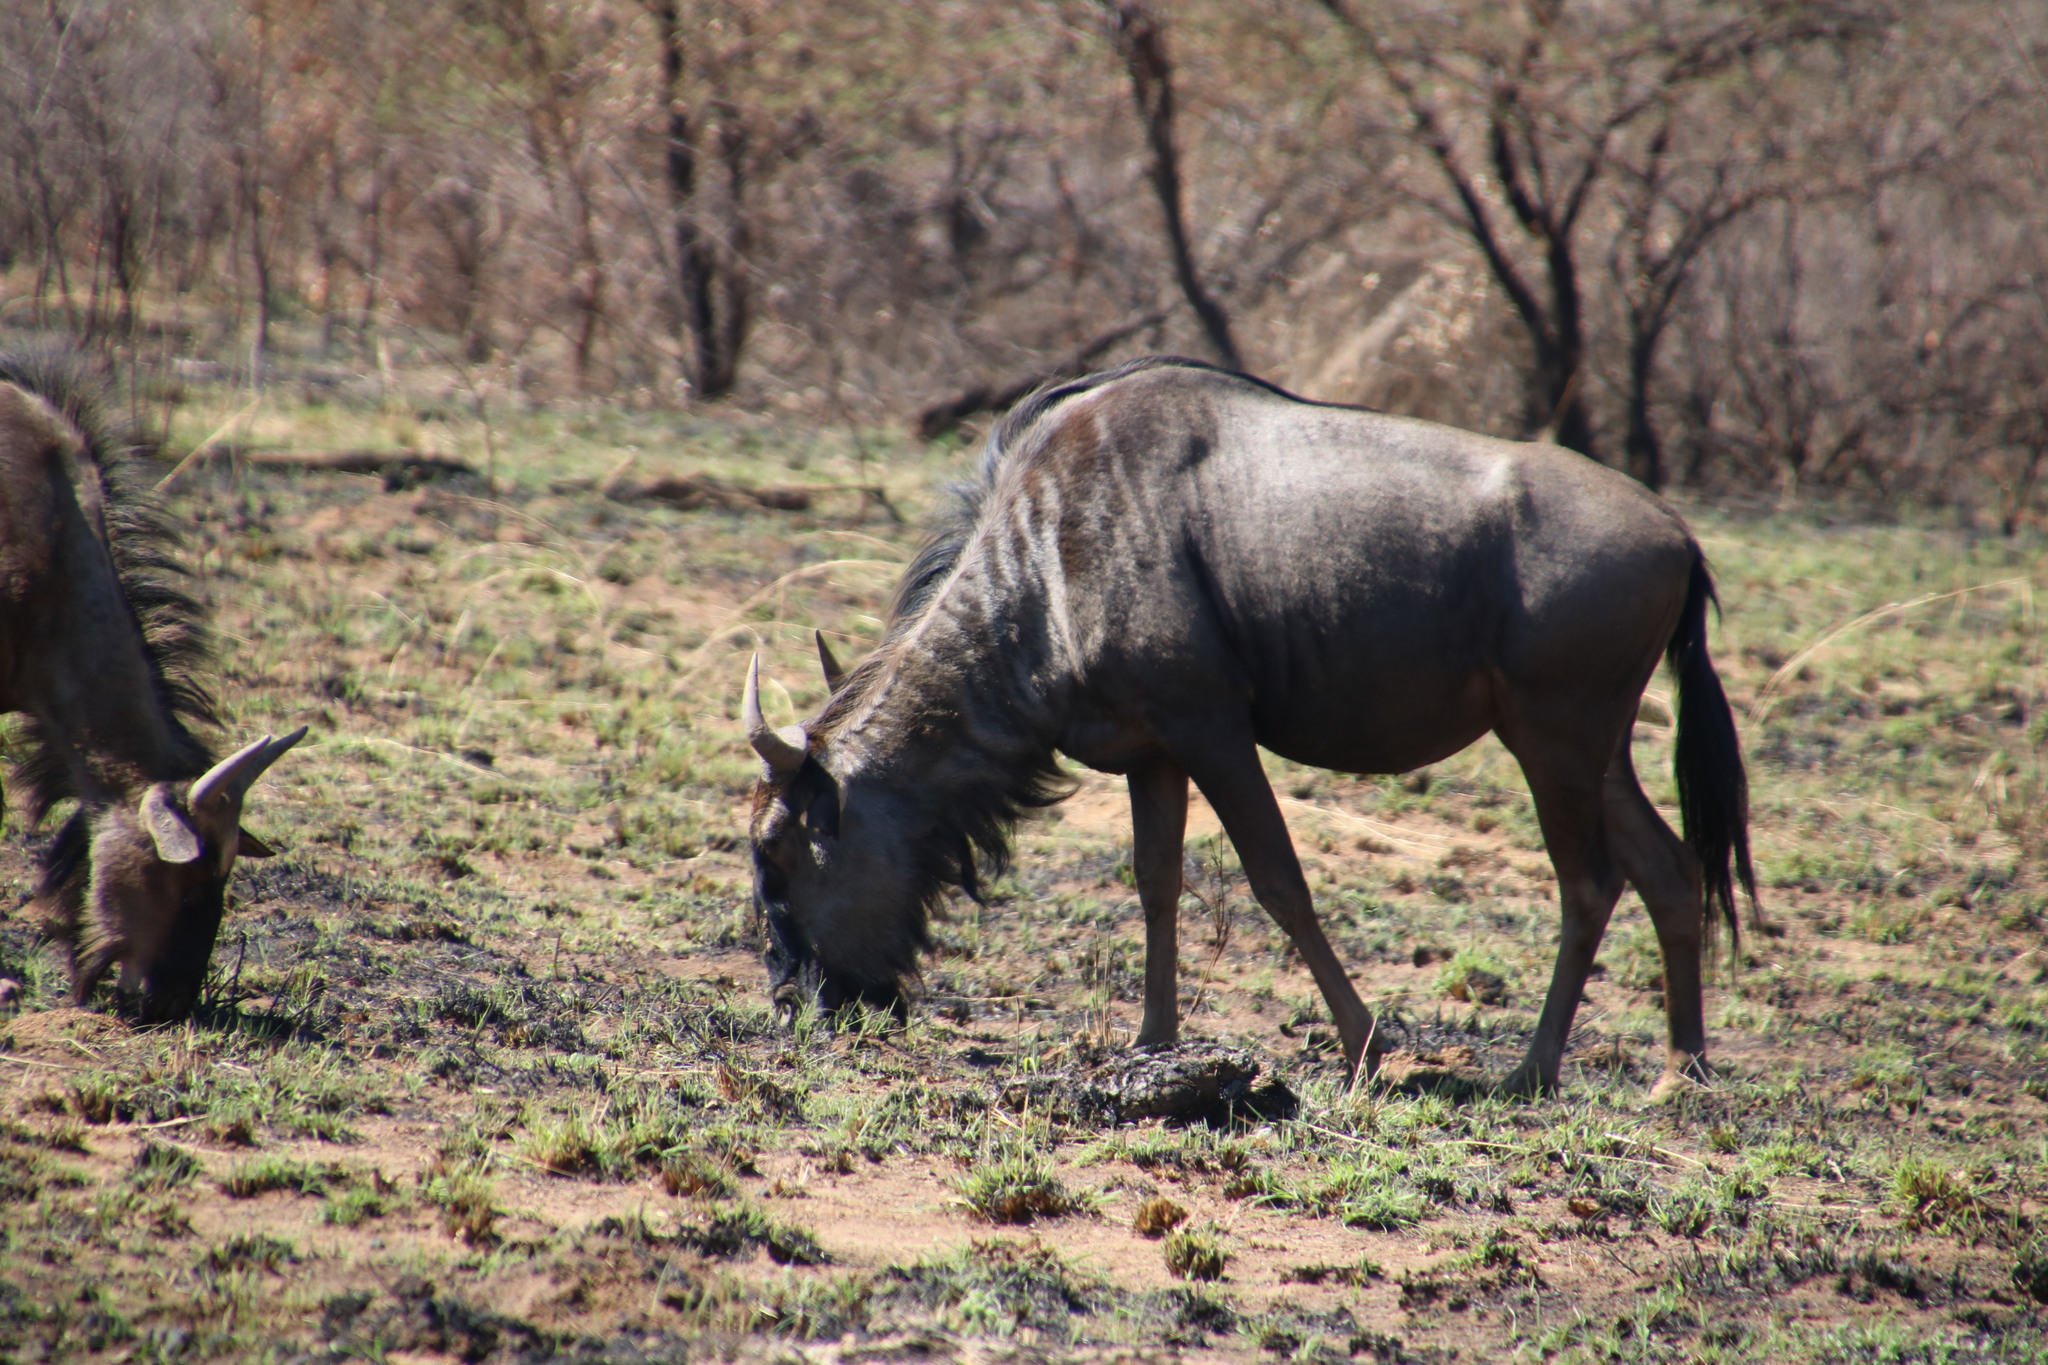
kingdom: Animalia
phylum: Chordata
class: Mammalia
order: Artiodactyla
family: Bovidae
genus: Connochaetes
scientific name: Connochaetes taurinus
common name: Blue wildebeest
